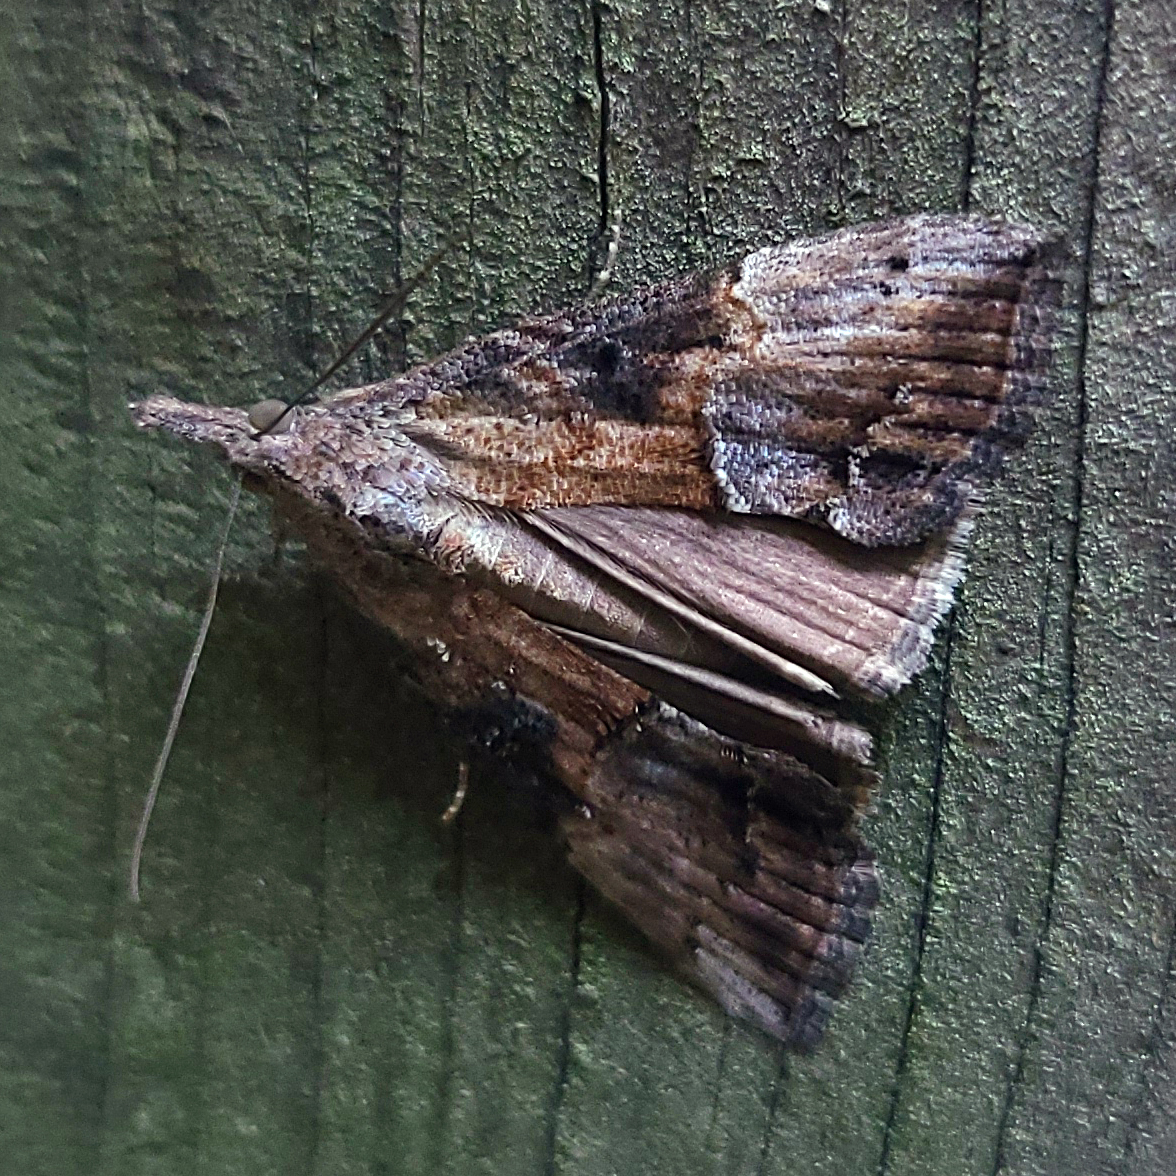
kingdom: Animalia
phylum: Arthropoda
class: Insecta
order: Lepidoptera
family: Erebidae
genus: Hypena
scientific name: Hypena scabra
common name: Green cloverworm
